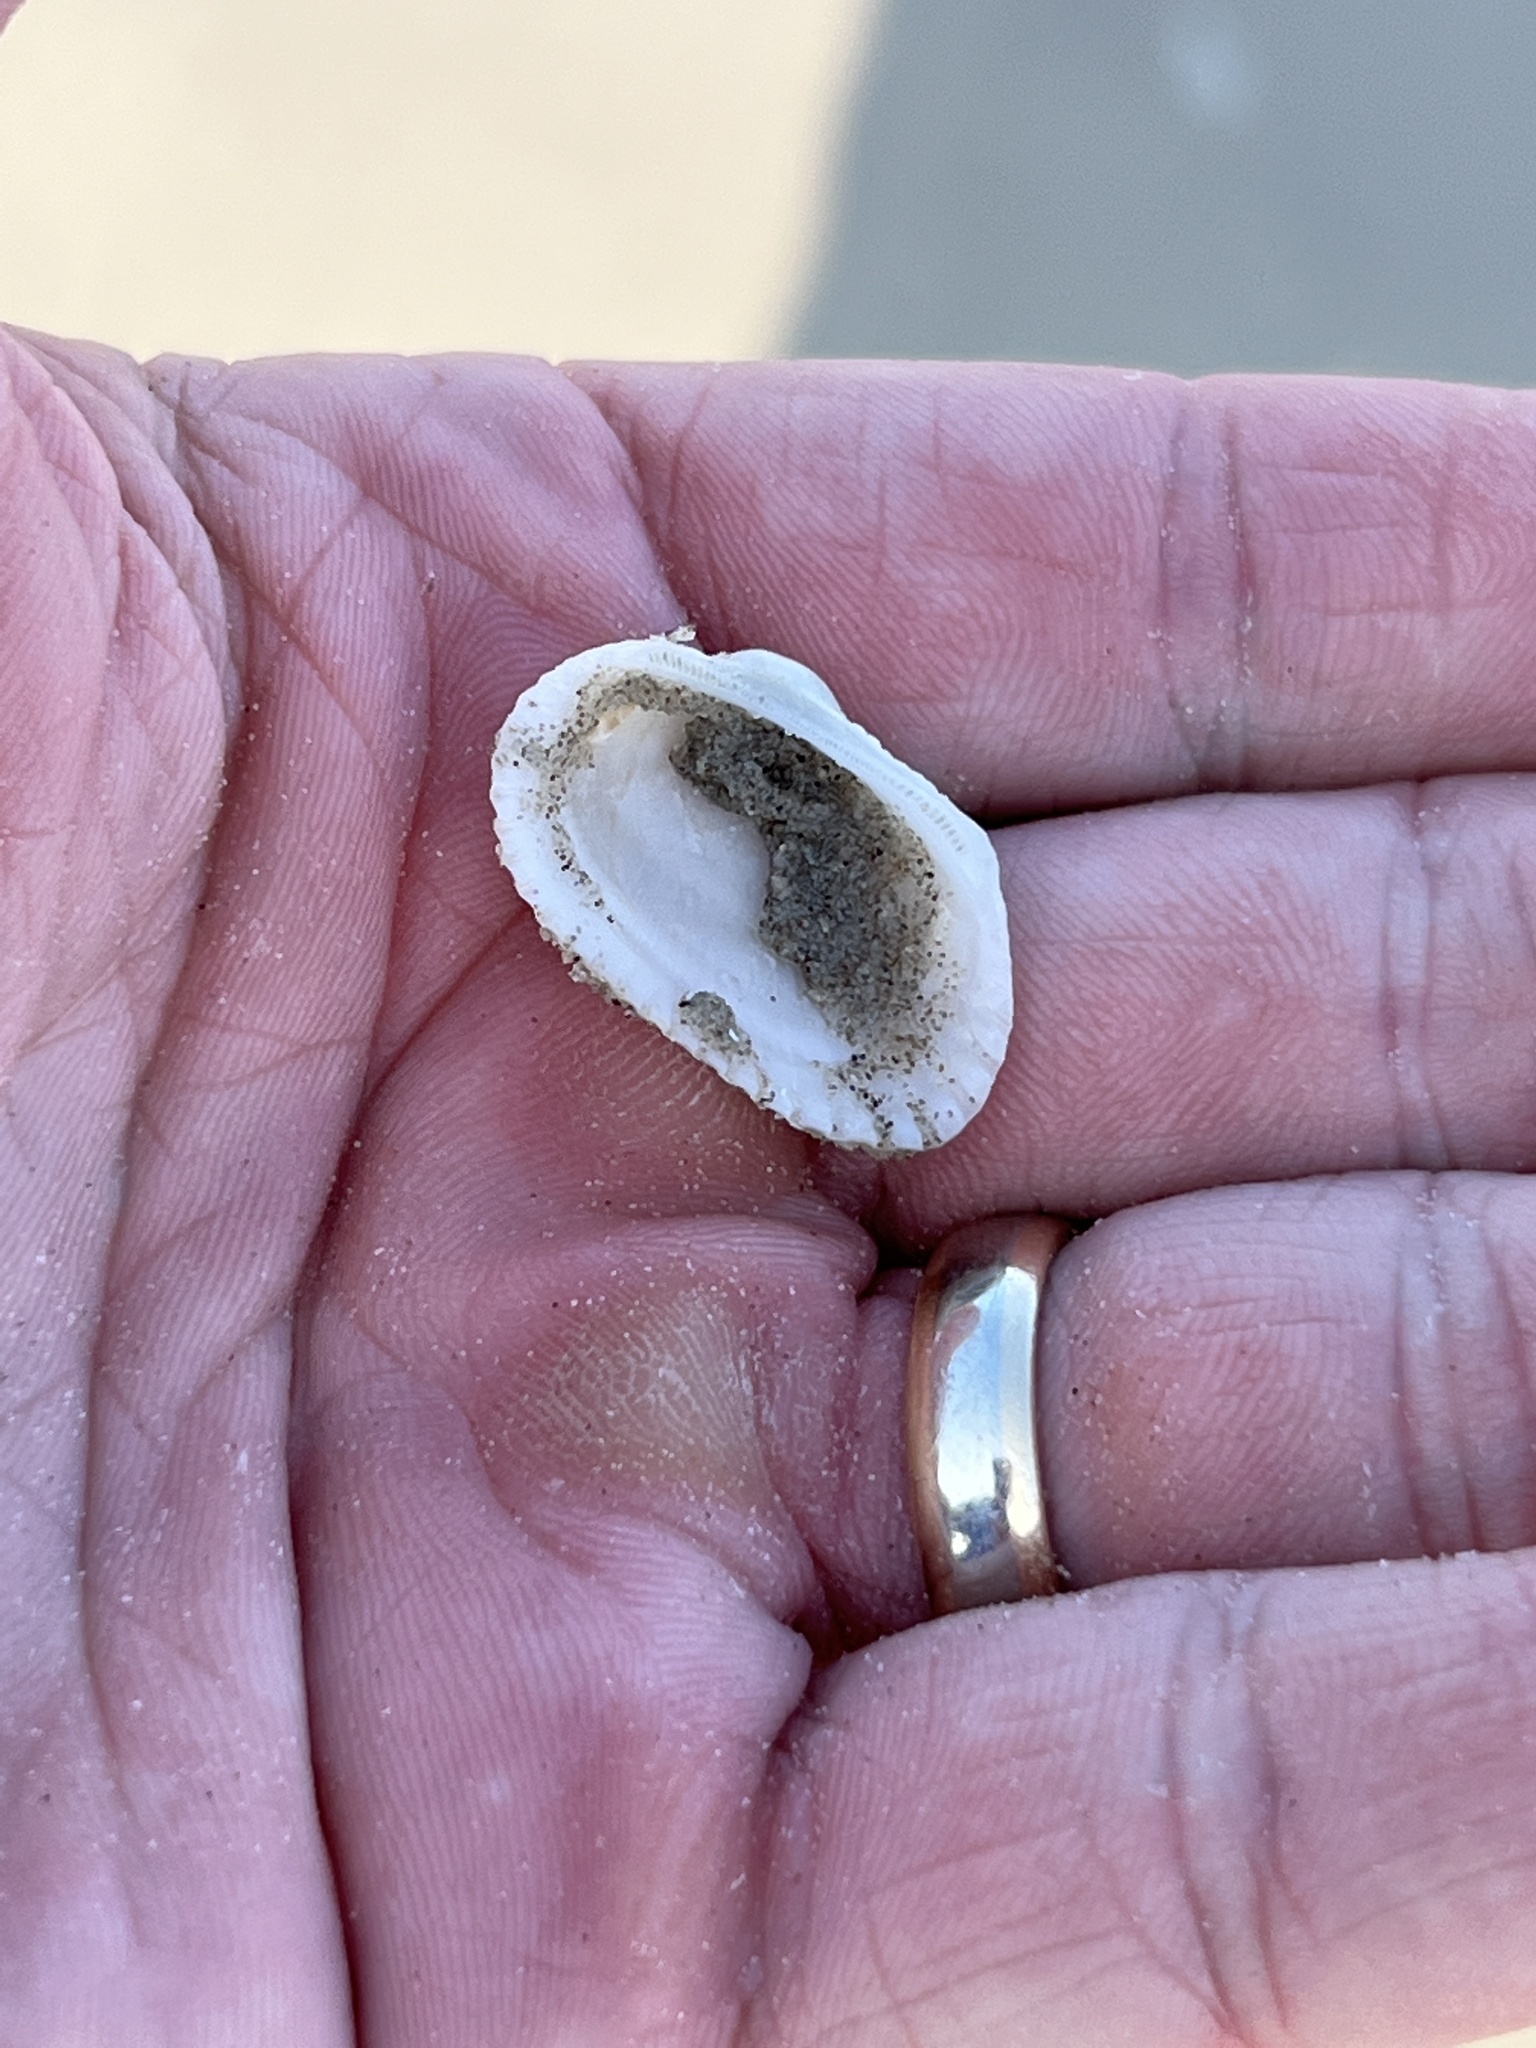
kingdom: Animalia
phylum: Mollusca
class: Bivalvia
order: Arcida
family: Arcidae
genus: Anadara
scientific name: Anadara transversa
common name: Transverse ark
